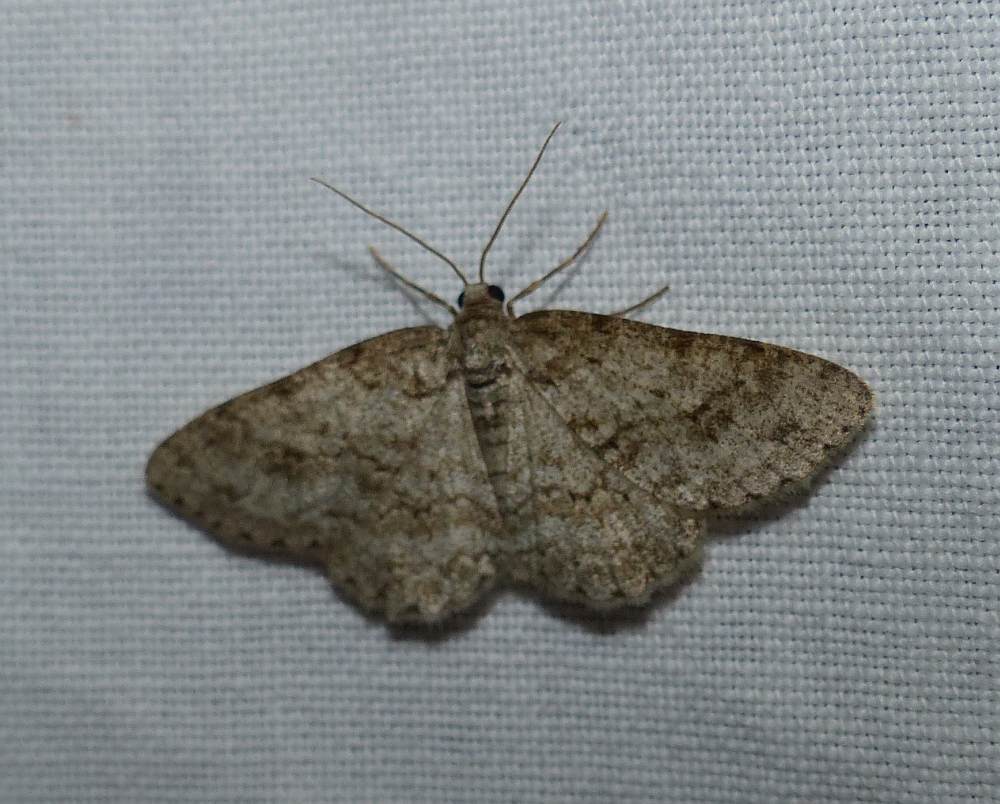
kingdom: Animalia
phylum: Arthropoda
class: Insecta
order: Lepidoptera
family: Geometridae
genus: Ectropis
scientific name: Ectropis crepuscularia
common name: Engrailed
